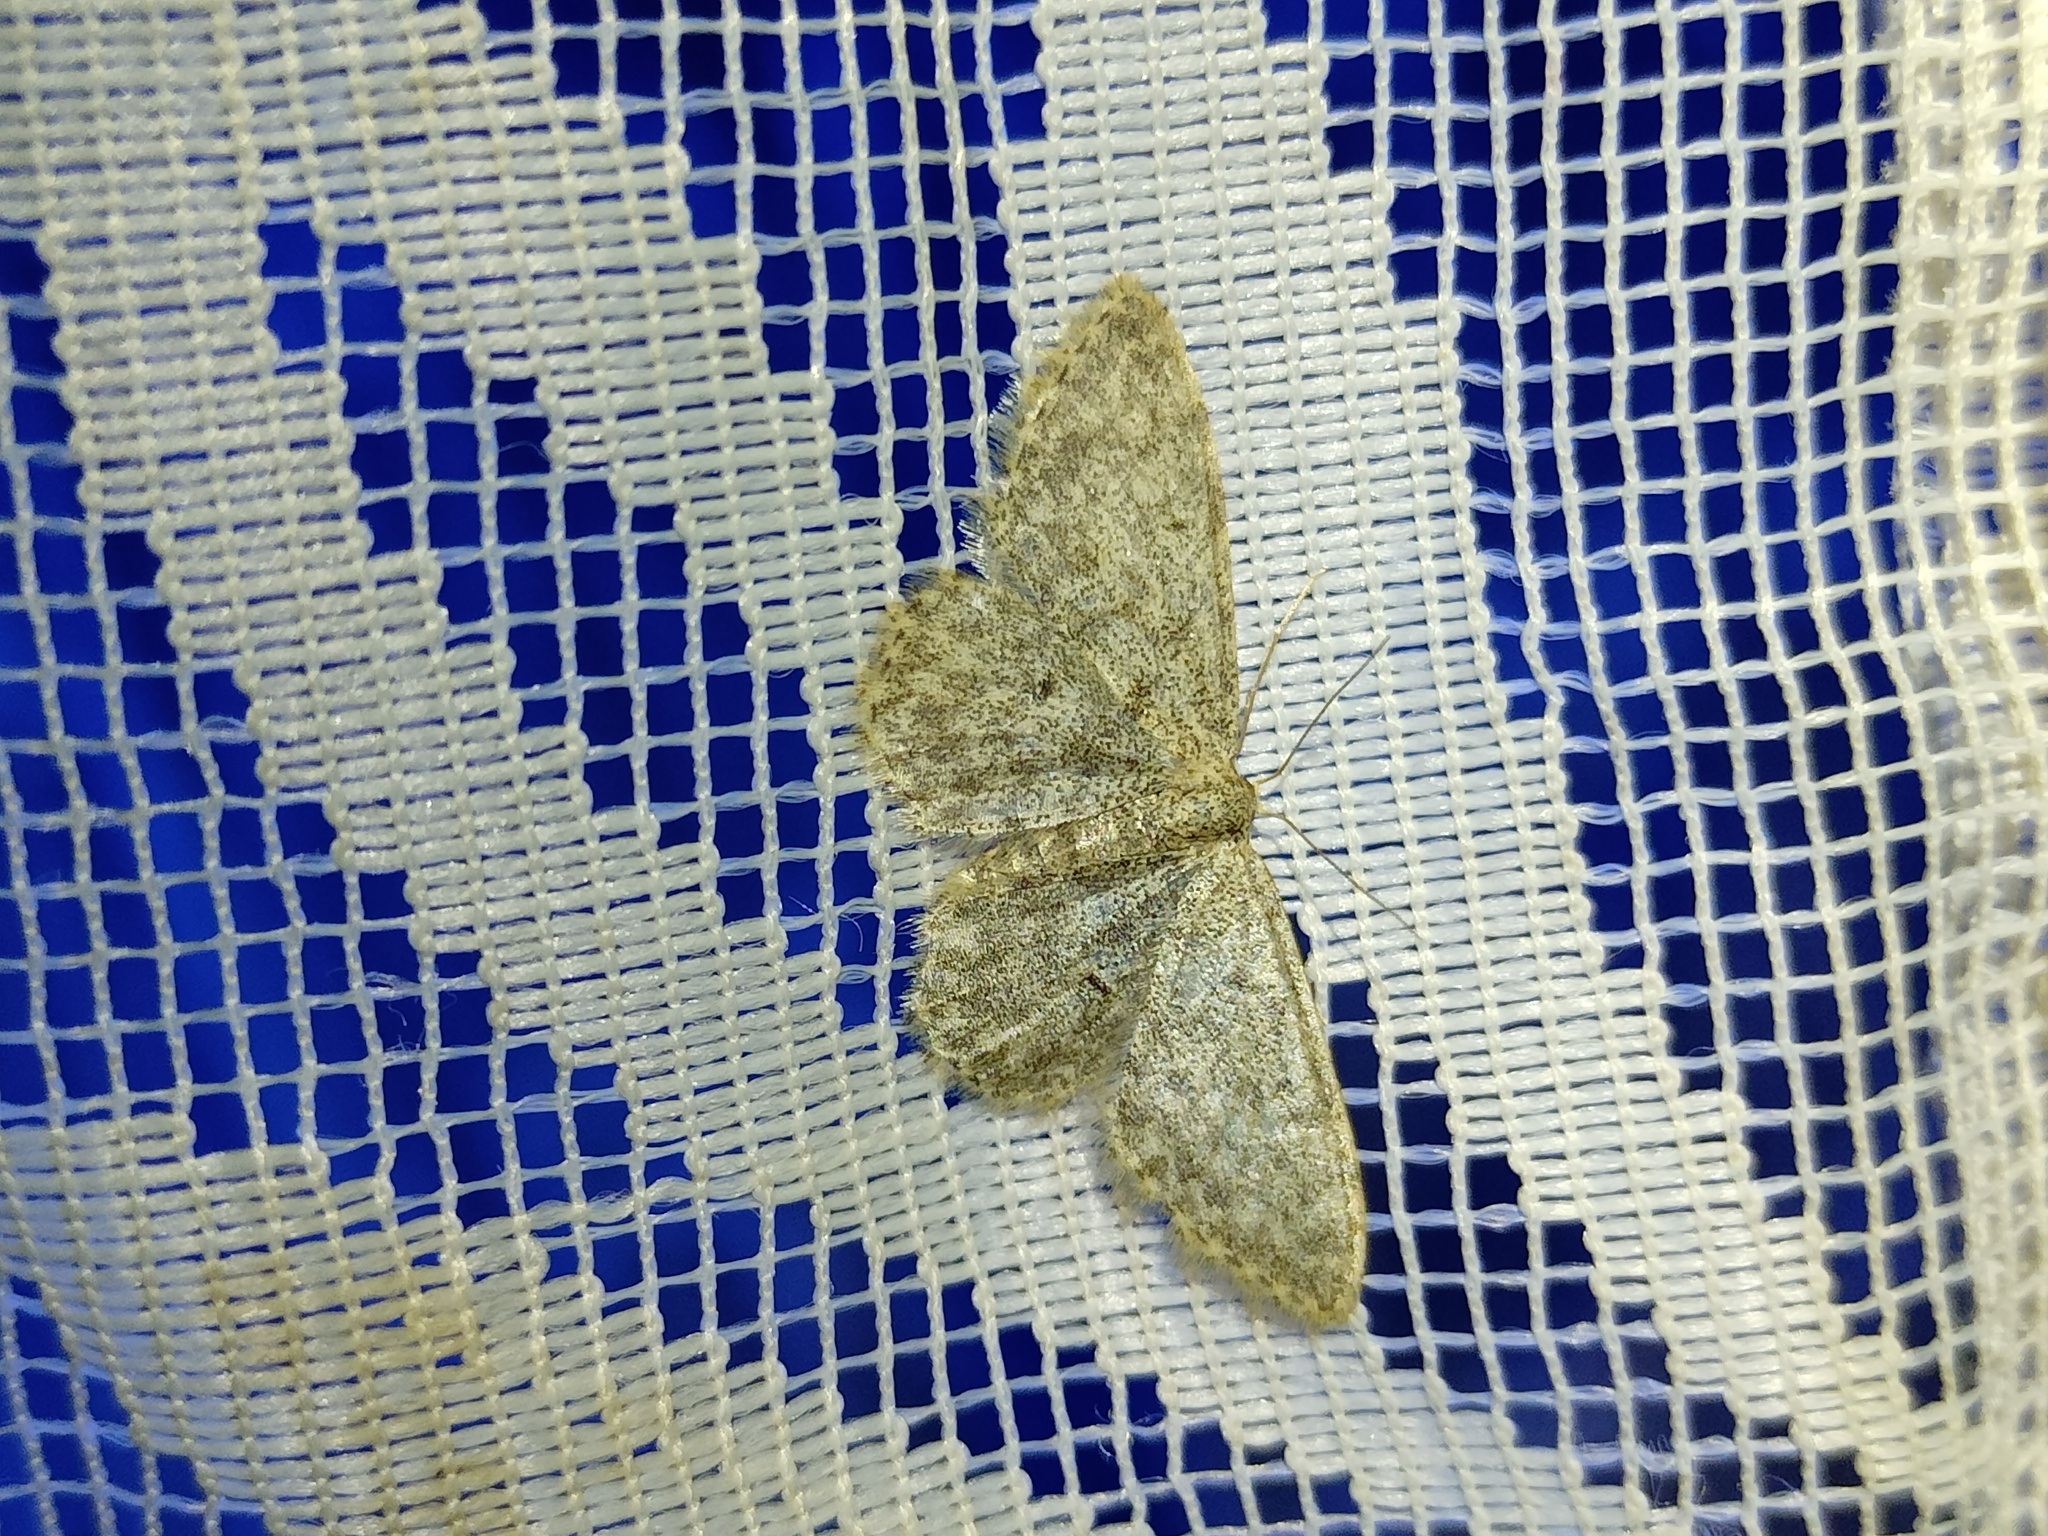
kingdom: Animalia
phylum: Arthropoda
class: Insecta
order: Lepidoptera
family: Geometridae
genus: Idaea
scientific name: Idaea typicata
